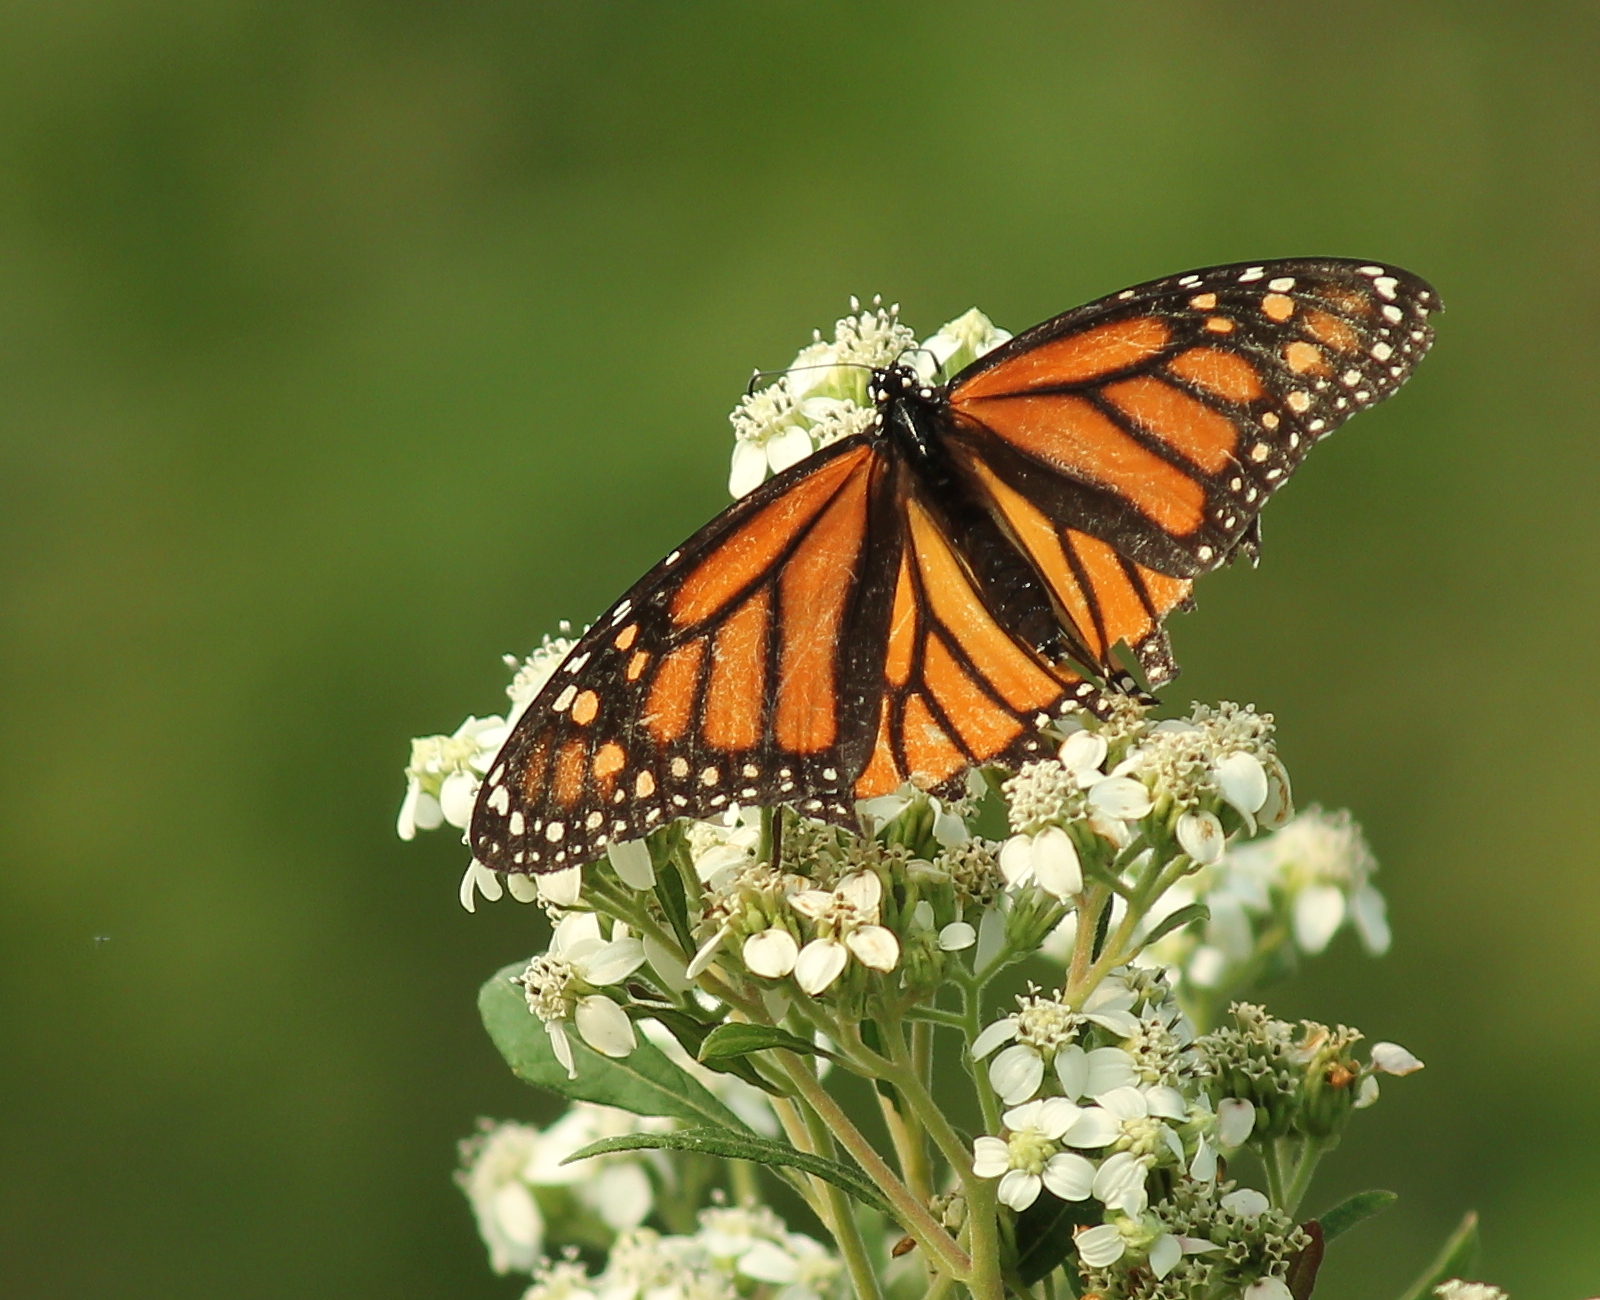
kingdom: Animalia
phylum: Arthropoda
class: Insecta
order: Lepidoptera
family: Nymphalidae
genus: Danaus
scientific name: Danaus plexippus
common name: Monarch
